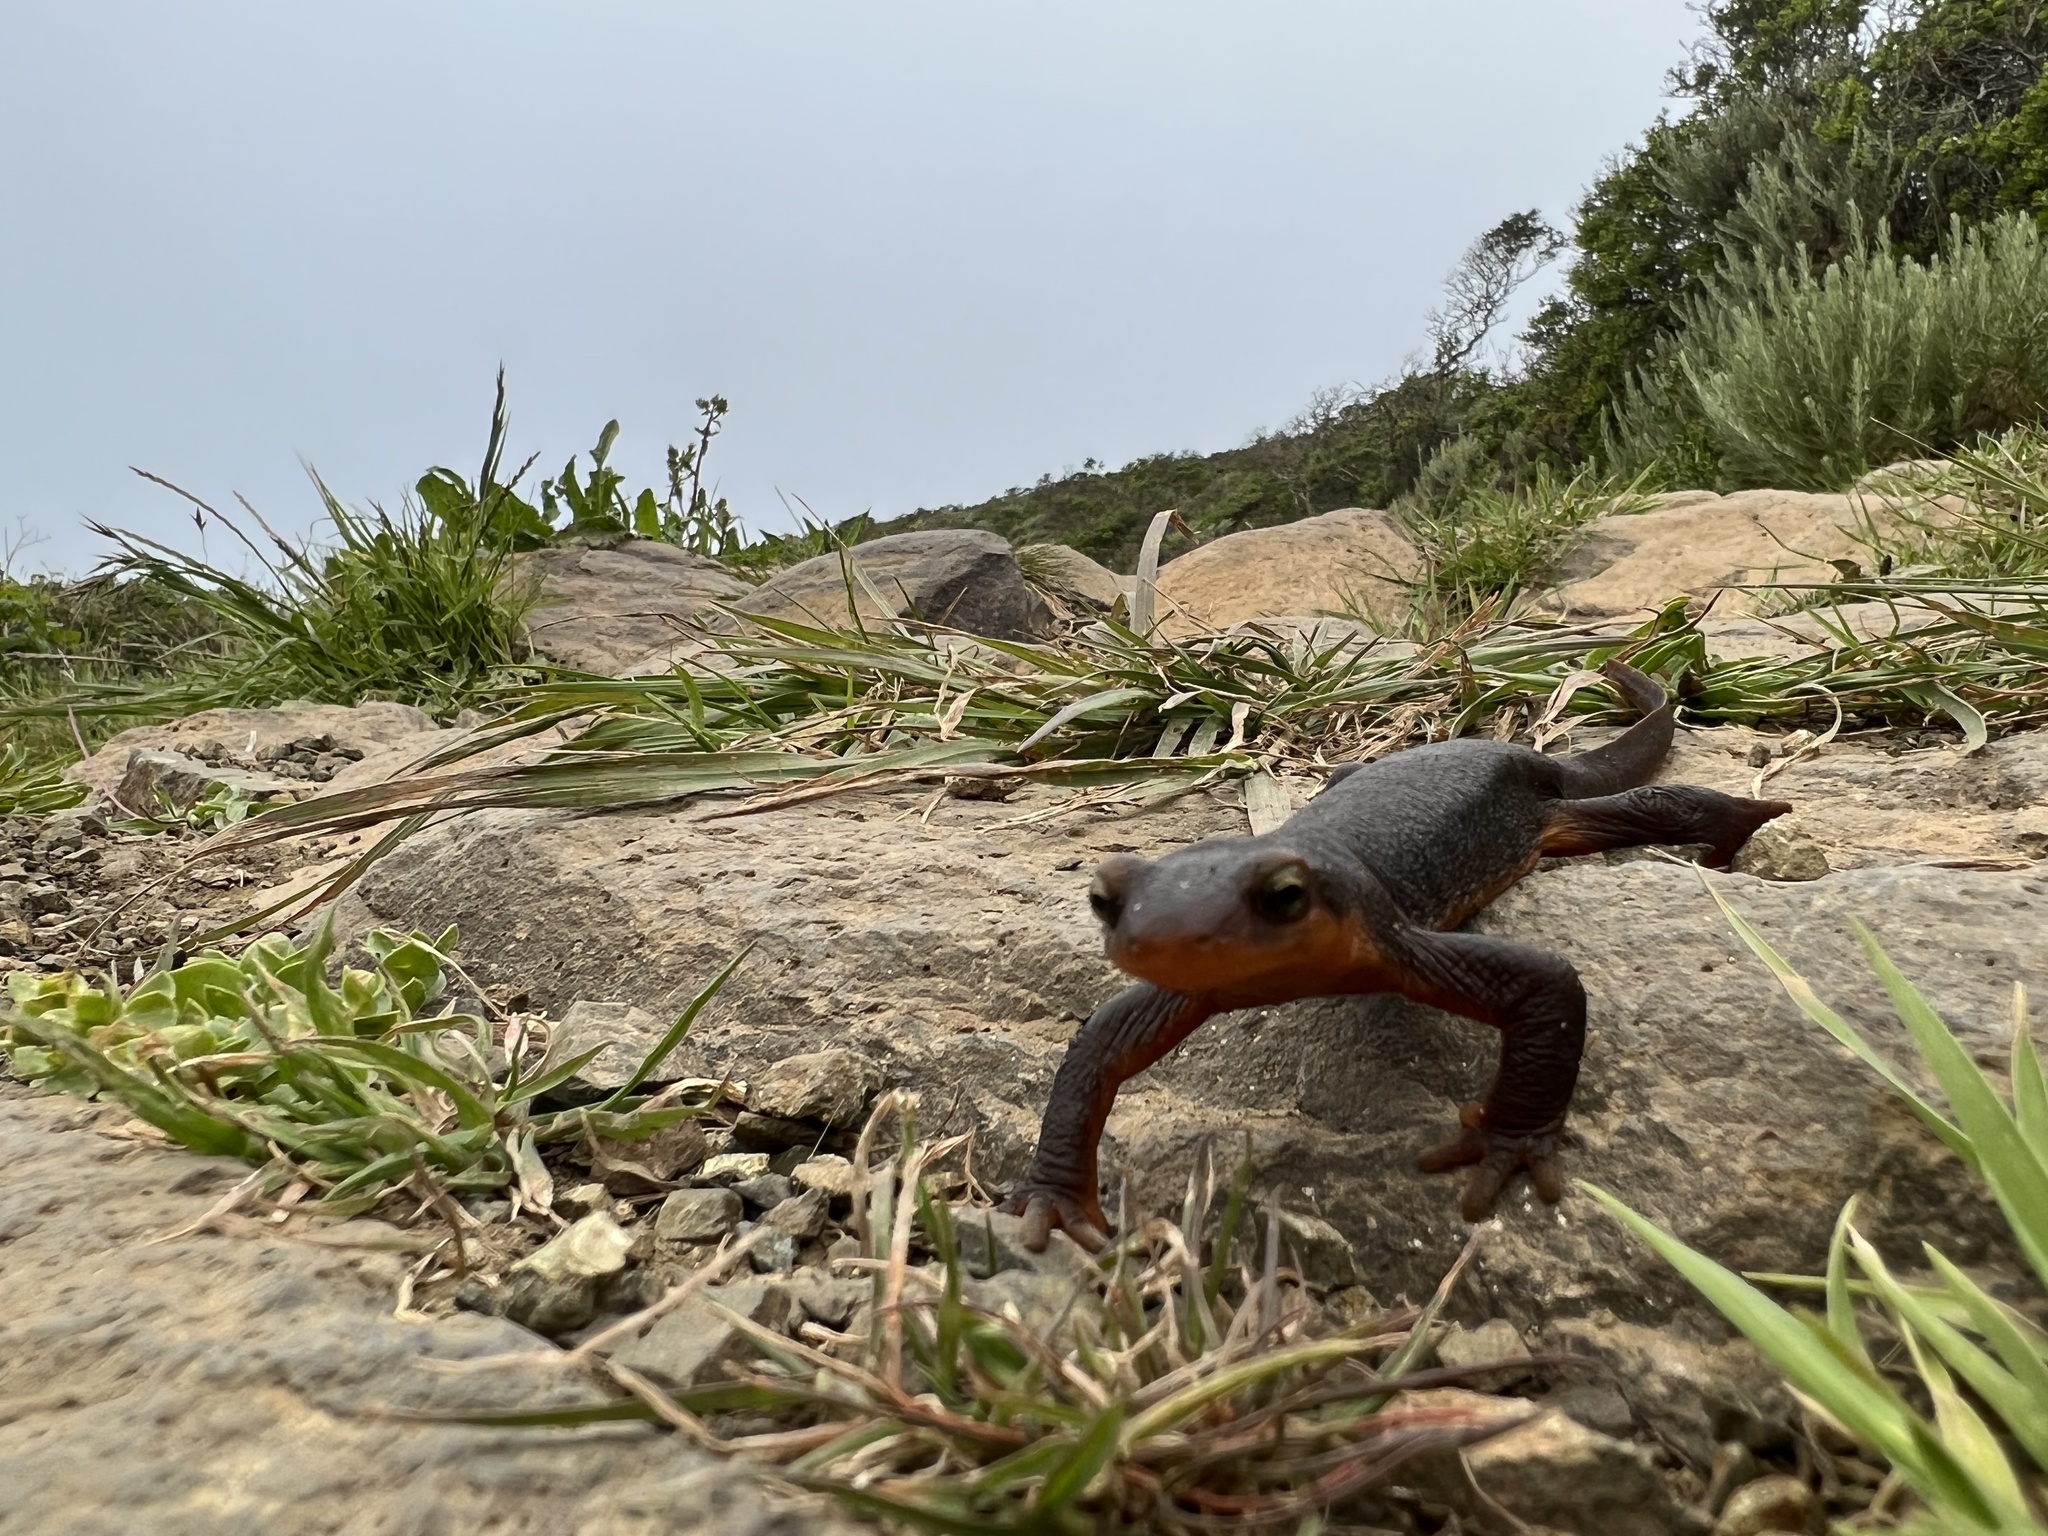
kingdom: Animalia
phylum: Chordata
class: Amphibia
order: Caudata
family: Salamandridae
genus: Taricha
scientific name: Taricha torosa
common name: California newt
